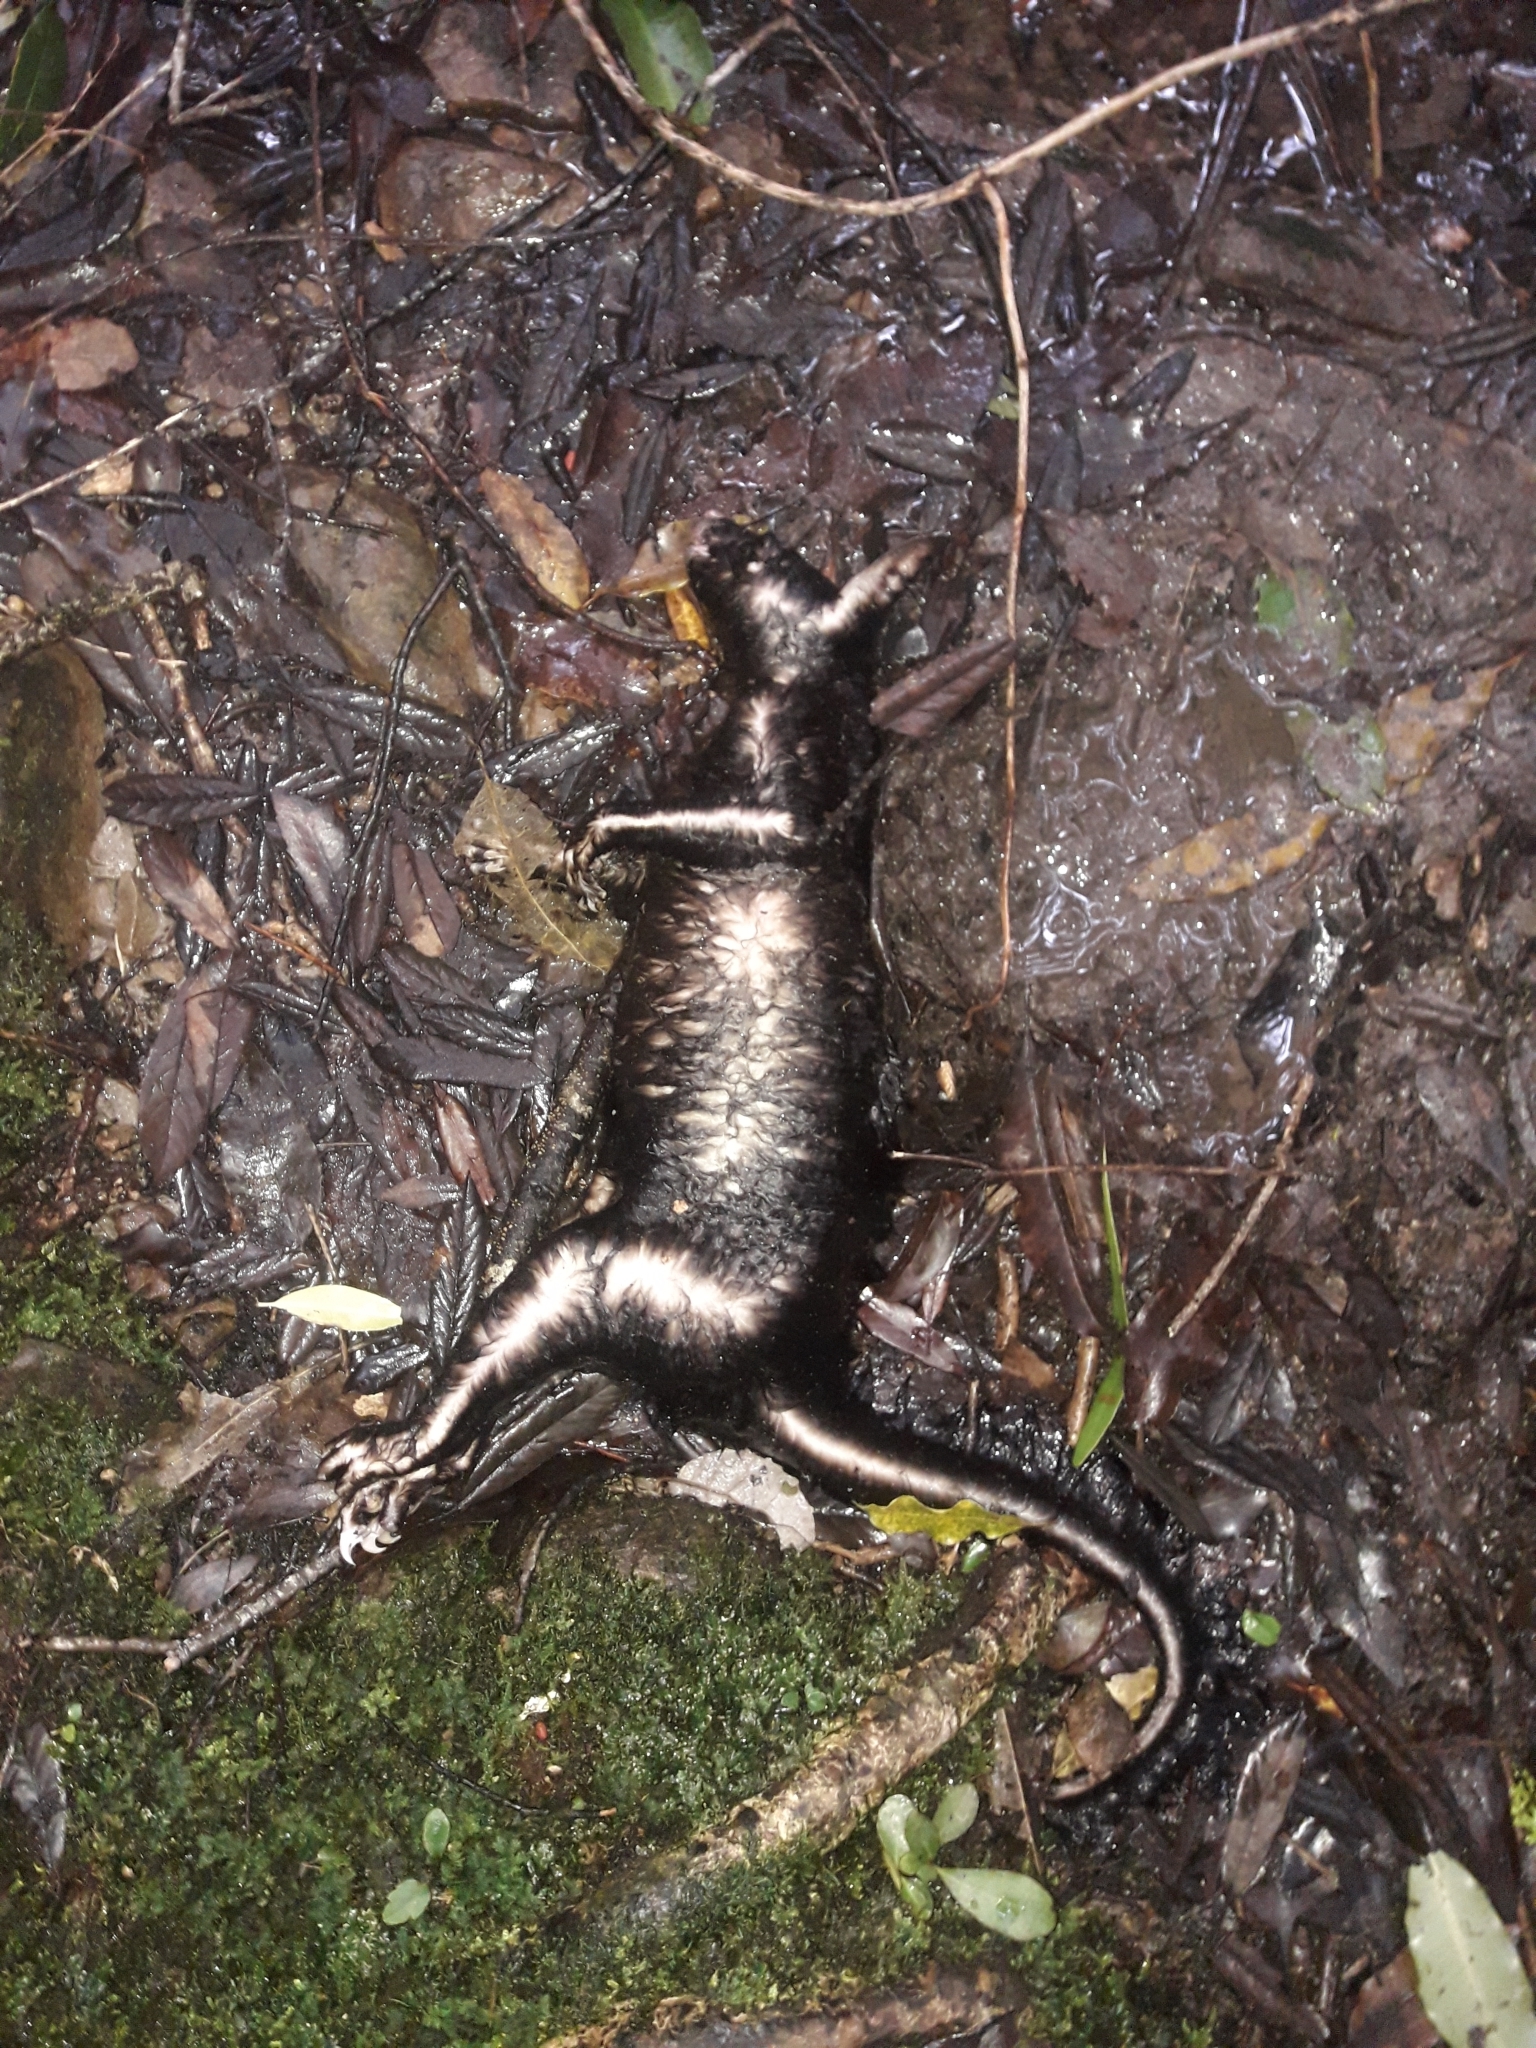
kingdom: Animalia
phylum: Chordata
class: Mammalia
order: Diprotodontia
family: Phalangeridae
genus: Trichosurus
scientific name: Trichosurus vulpecula
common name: Common brushtail
